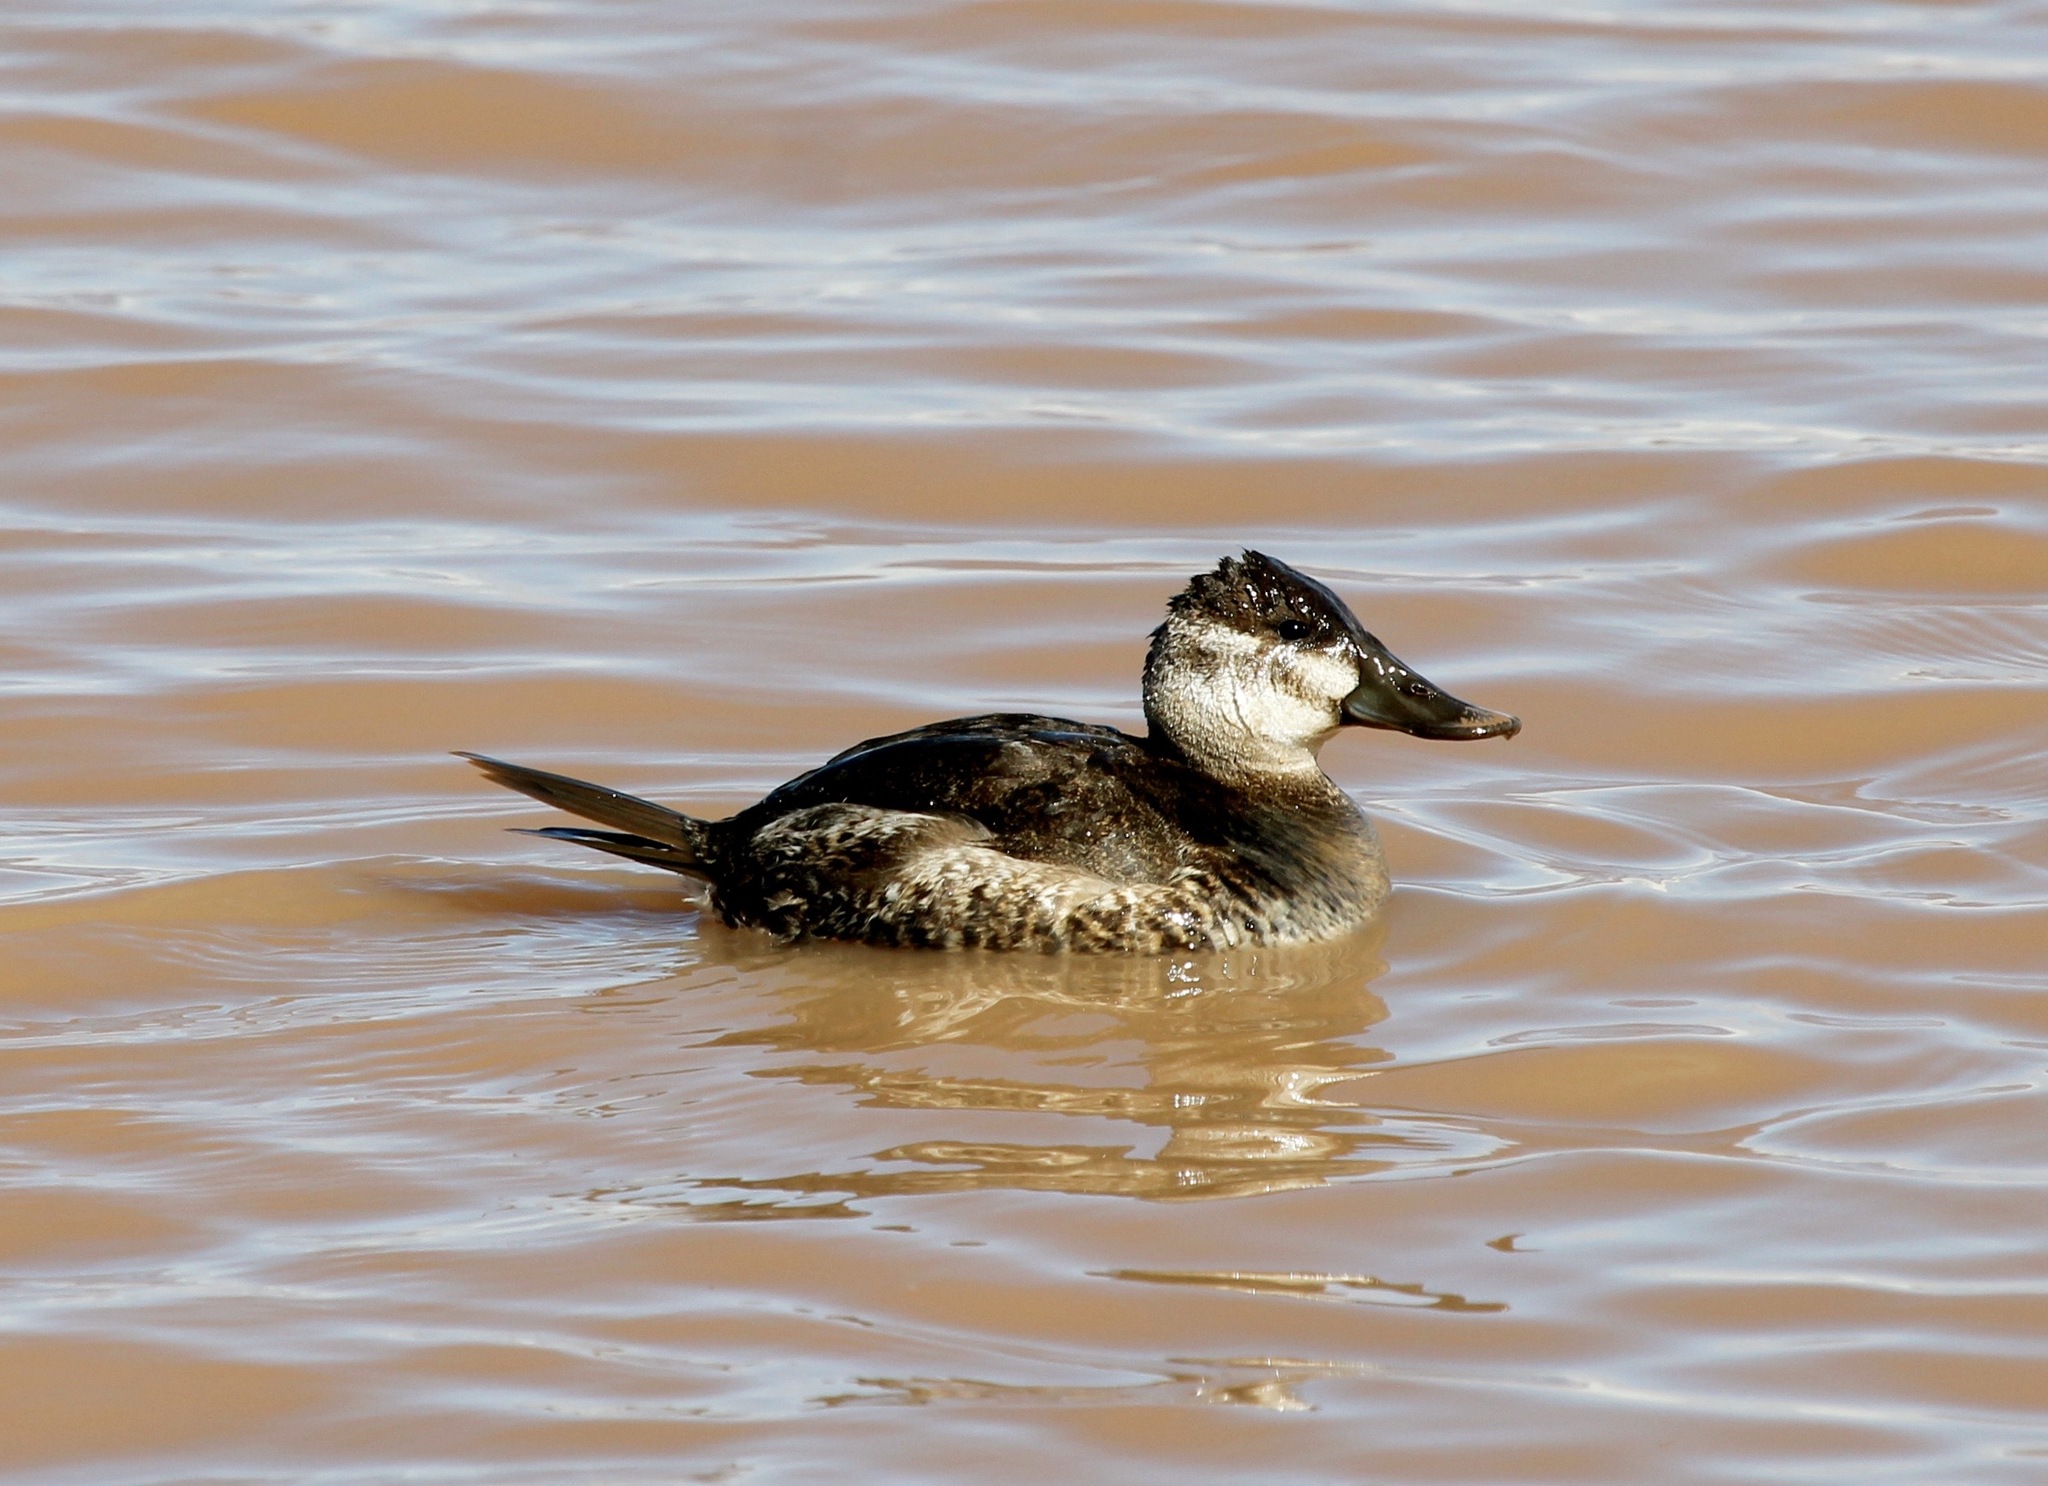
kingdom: Animalia
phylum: Chordata
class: Aves
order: Anseriformes
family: Anatidae
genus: Oxyura
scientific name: Oxyura jamaicensis
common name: Ruddy duck
